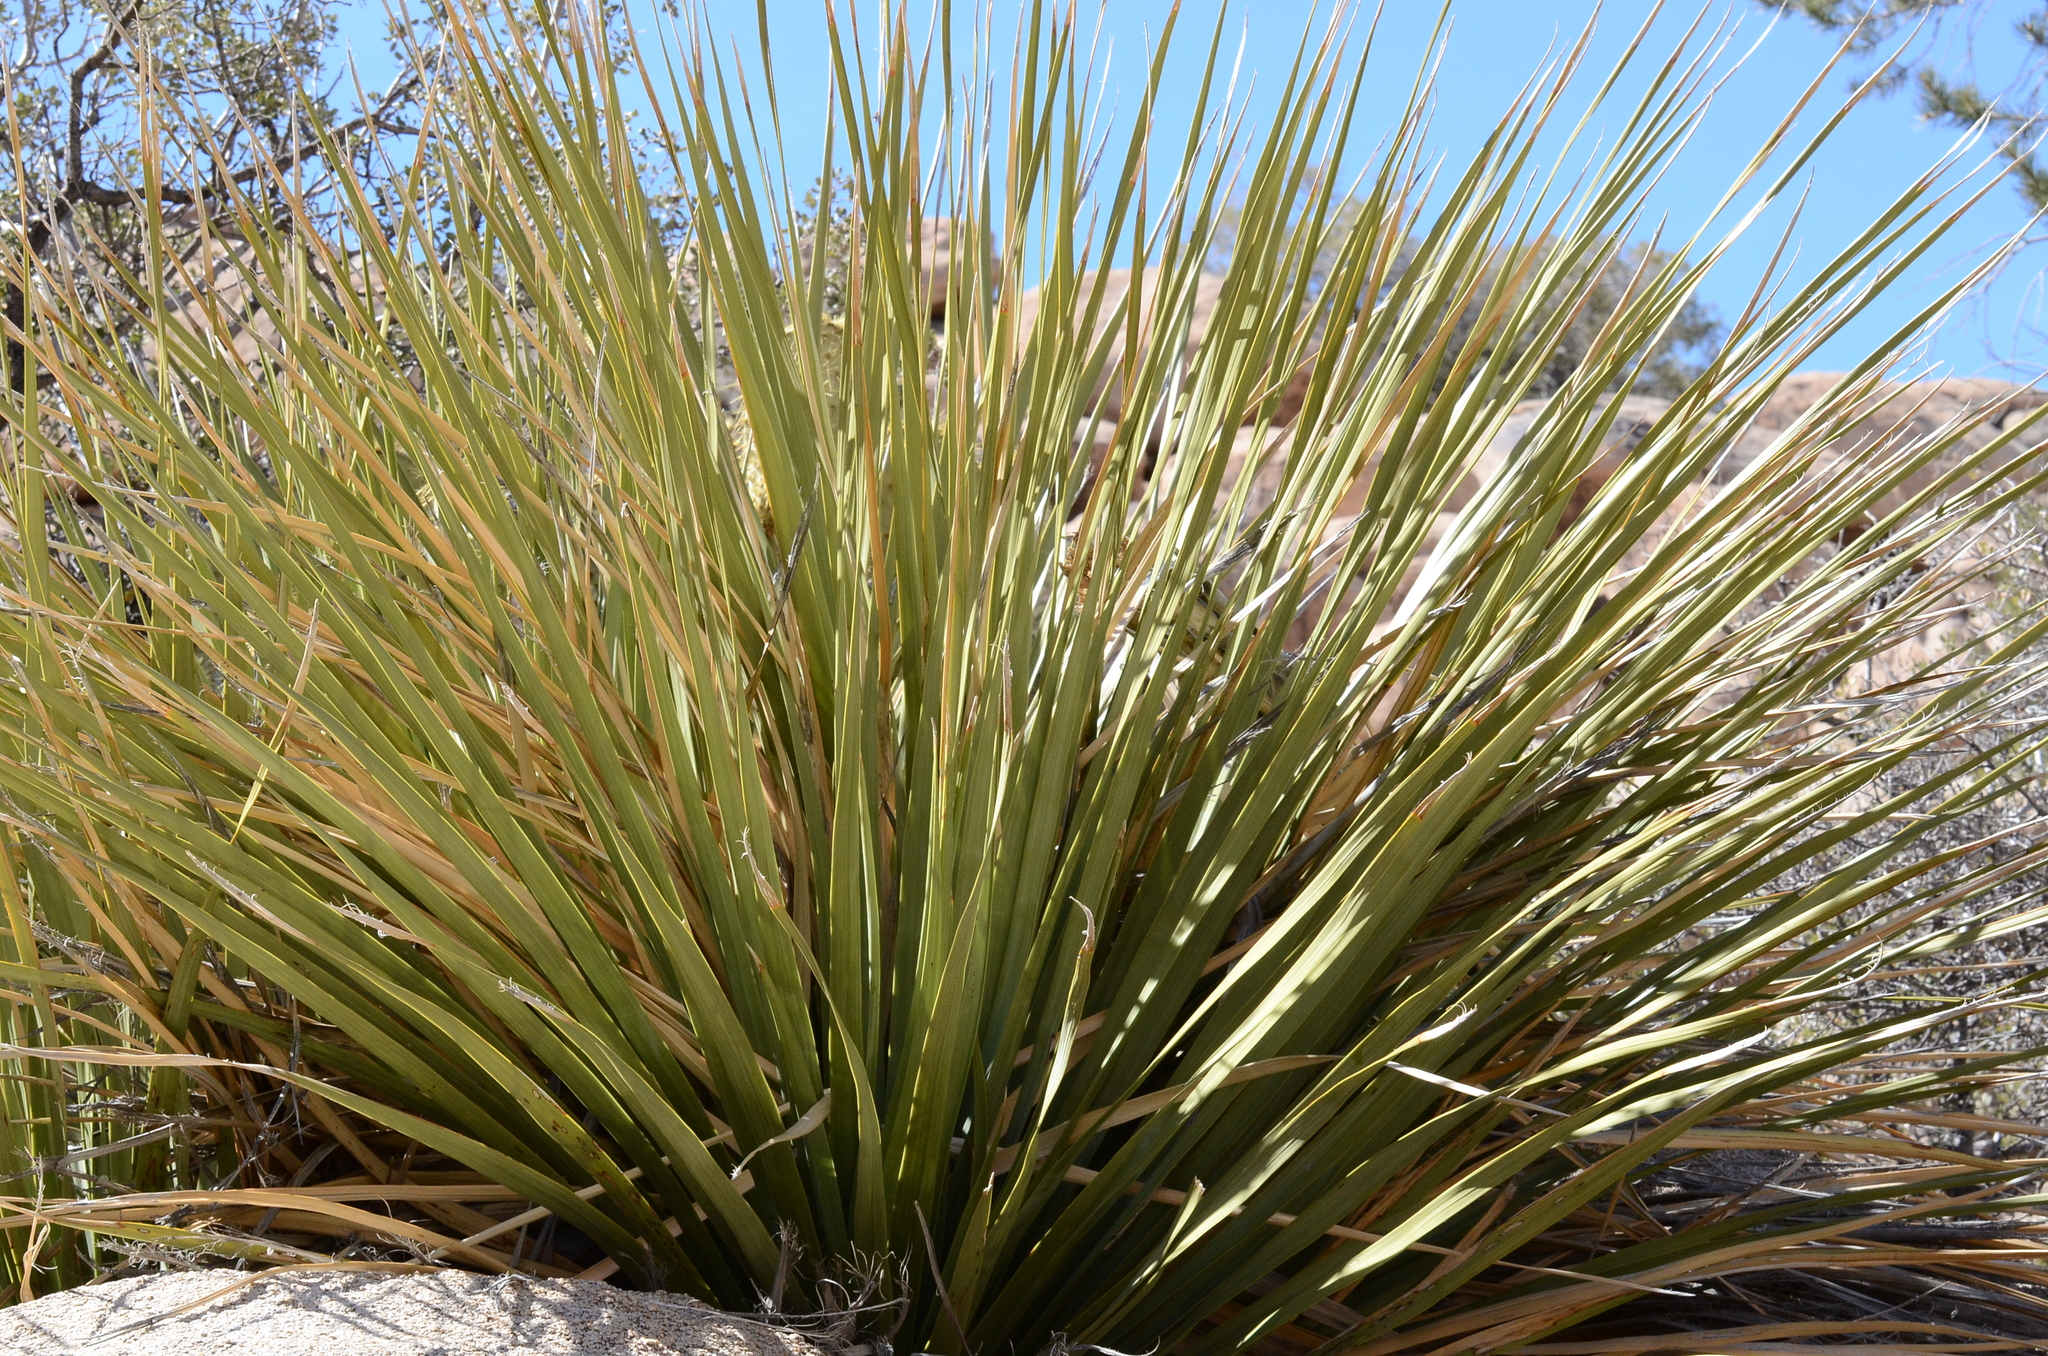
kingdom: Plantae
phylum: Tracheophyta
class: Liliopsida
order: Asparagales
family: Asparagaceae
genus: Nolina
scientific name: Nolina parryi
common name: Parry nolina
